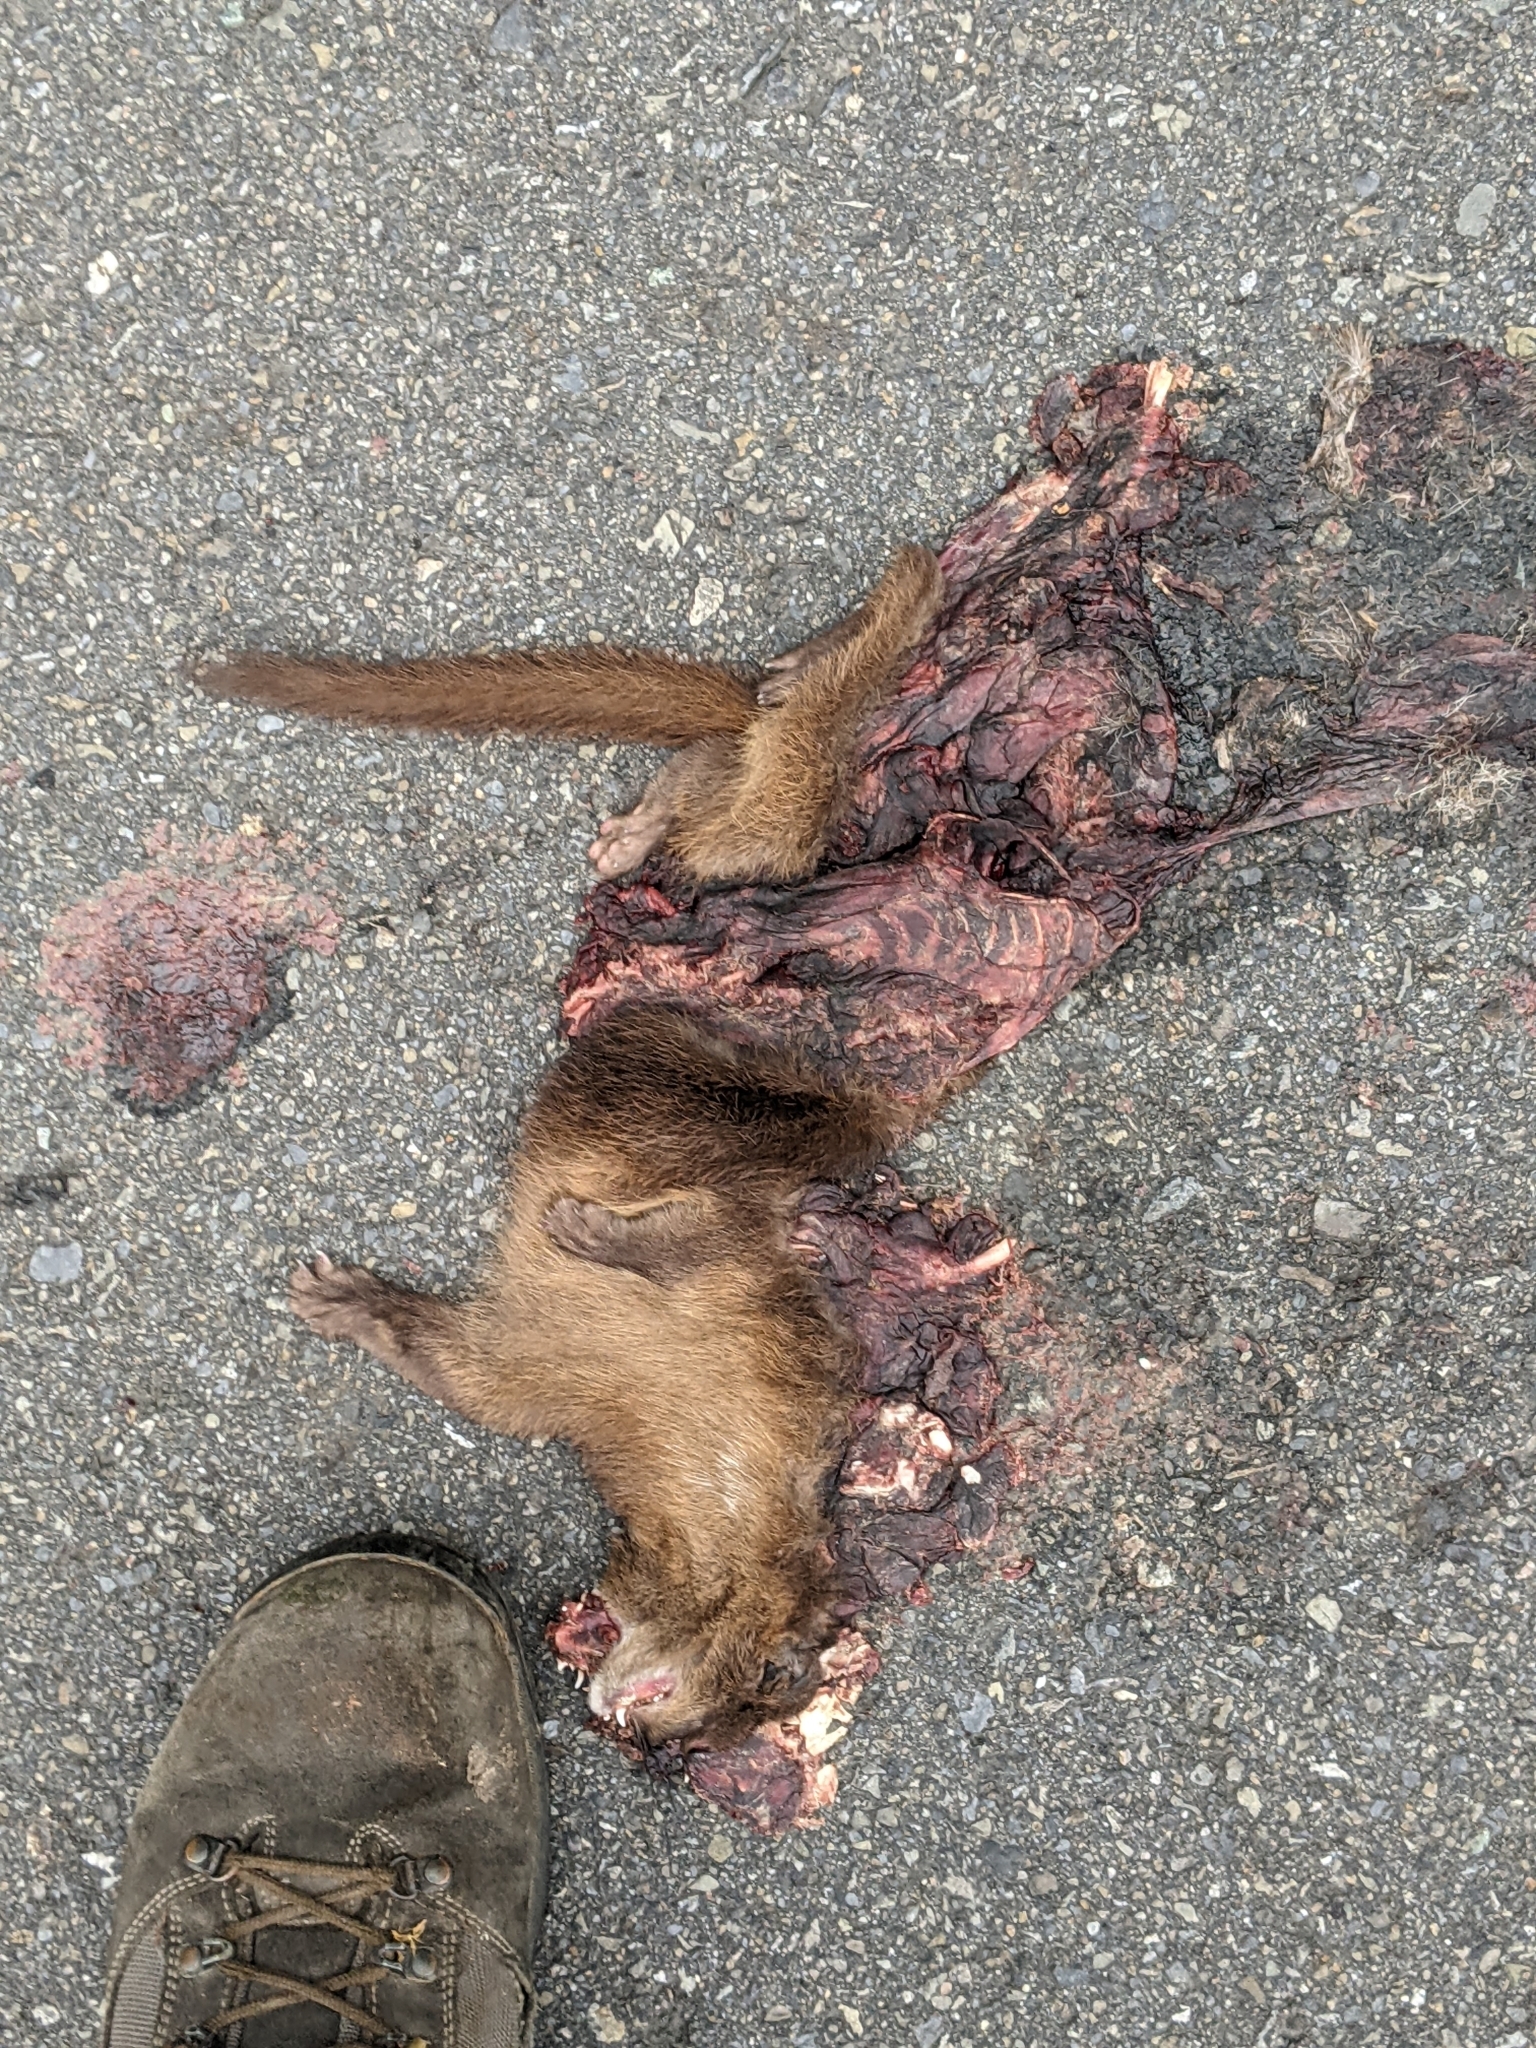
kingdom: Animalia
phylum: Chordata
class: Mammalia
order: Carnivora
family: Mustelidae
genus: Mustela
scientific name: Mustela sibirica
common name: Siberian weasel
